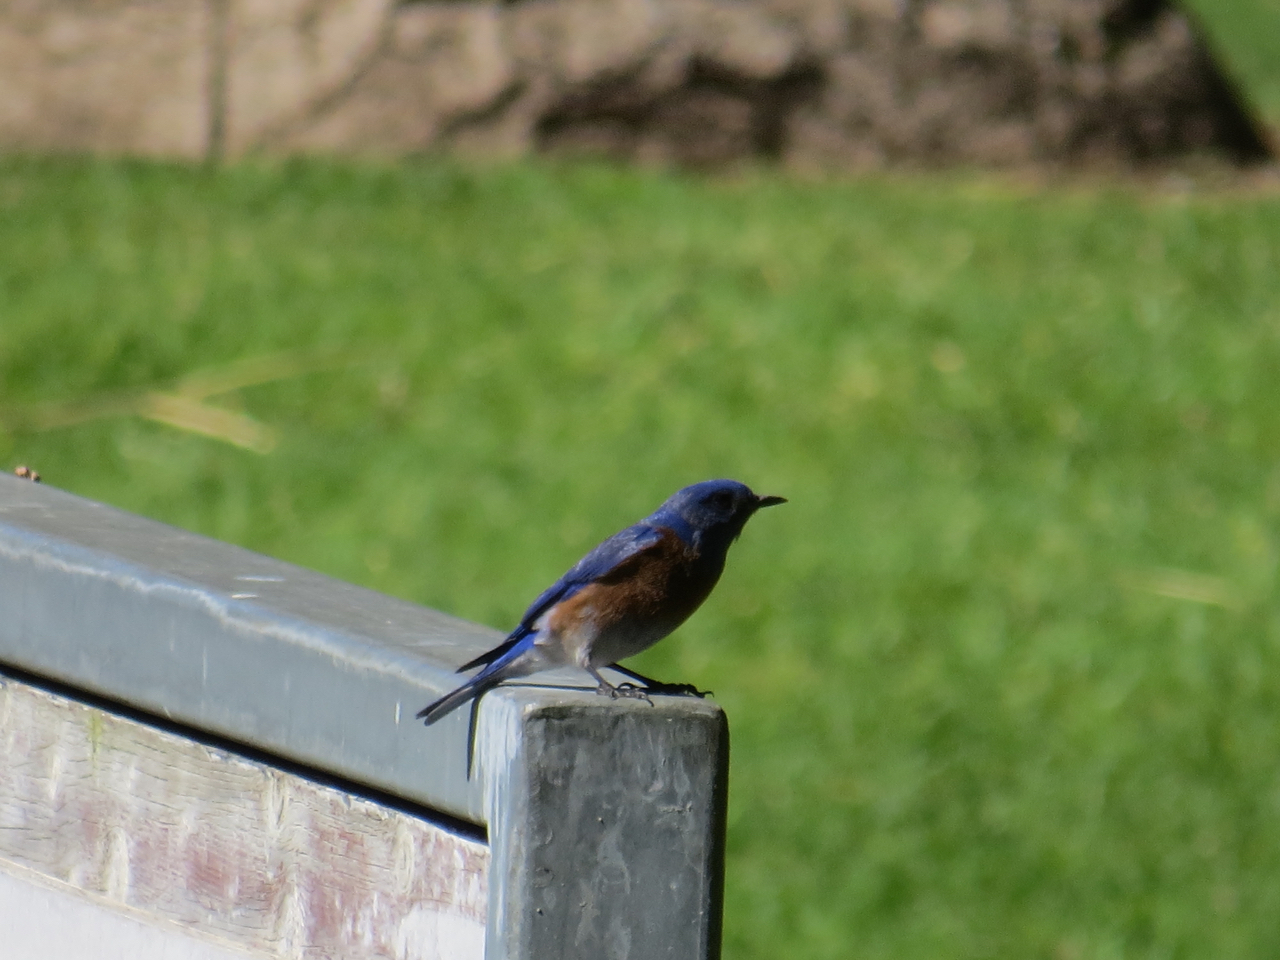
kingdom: Animalia
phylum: Chordata
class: Aves
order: Passeriformes
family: Turdidae
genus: Sialia
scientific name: Sialia mexicana
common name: Western bluebird
